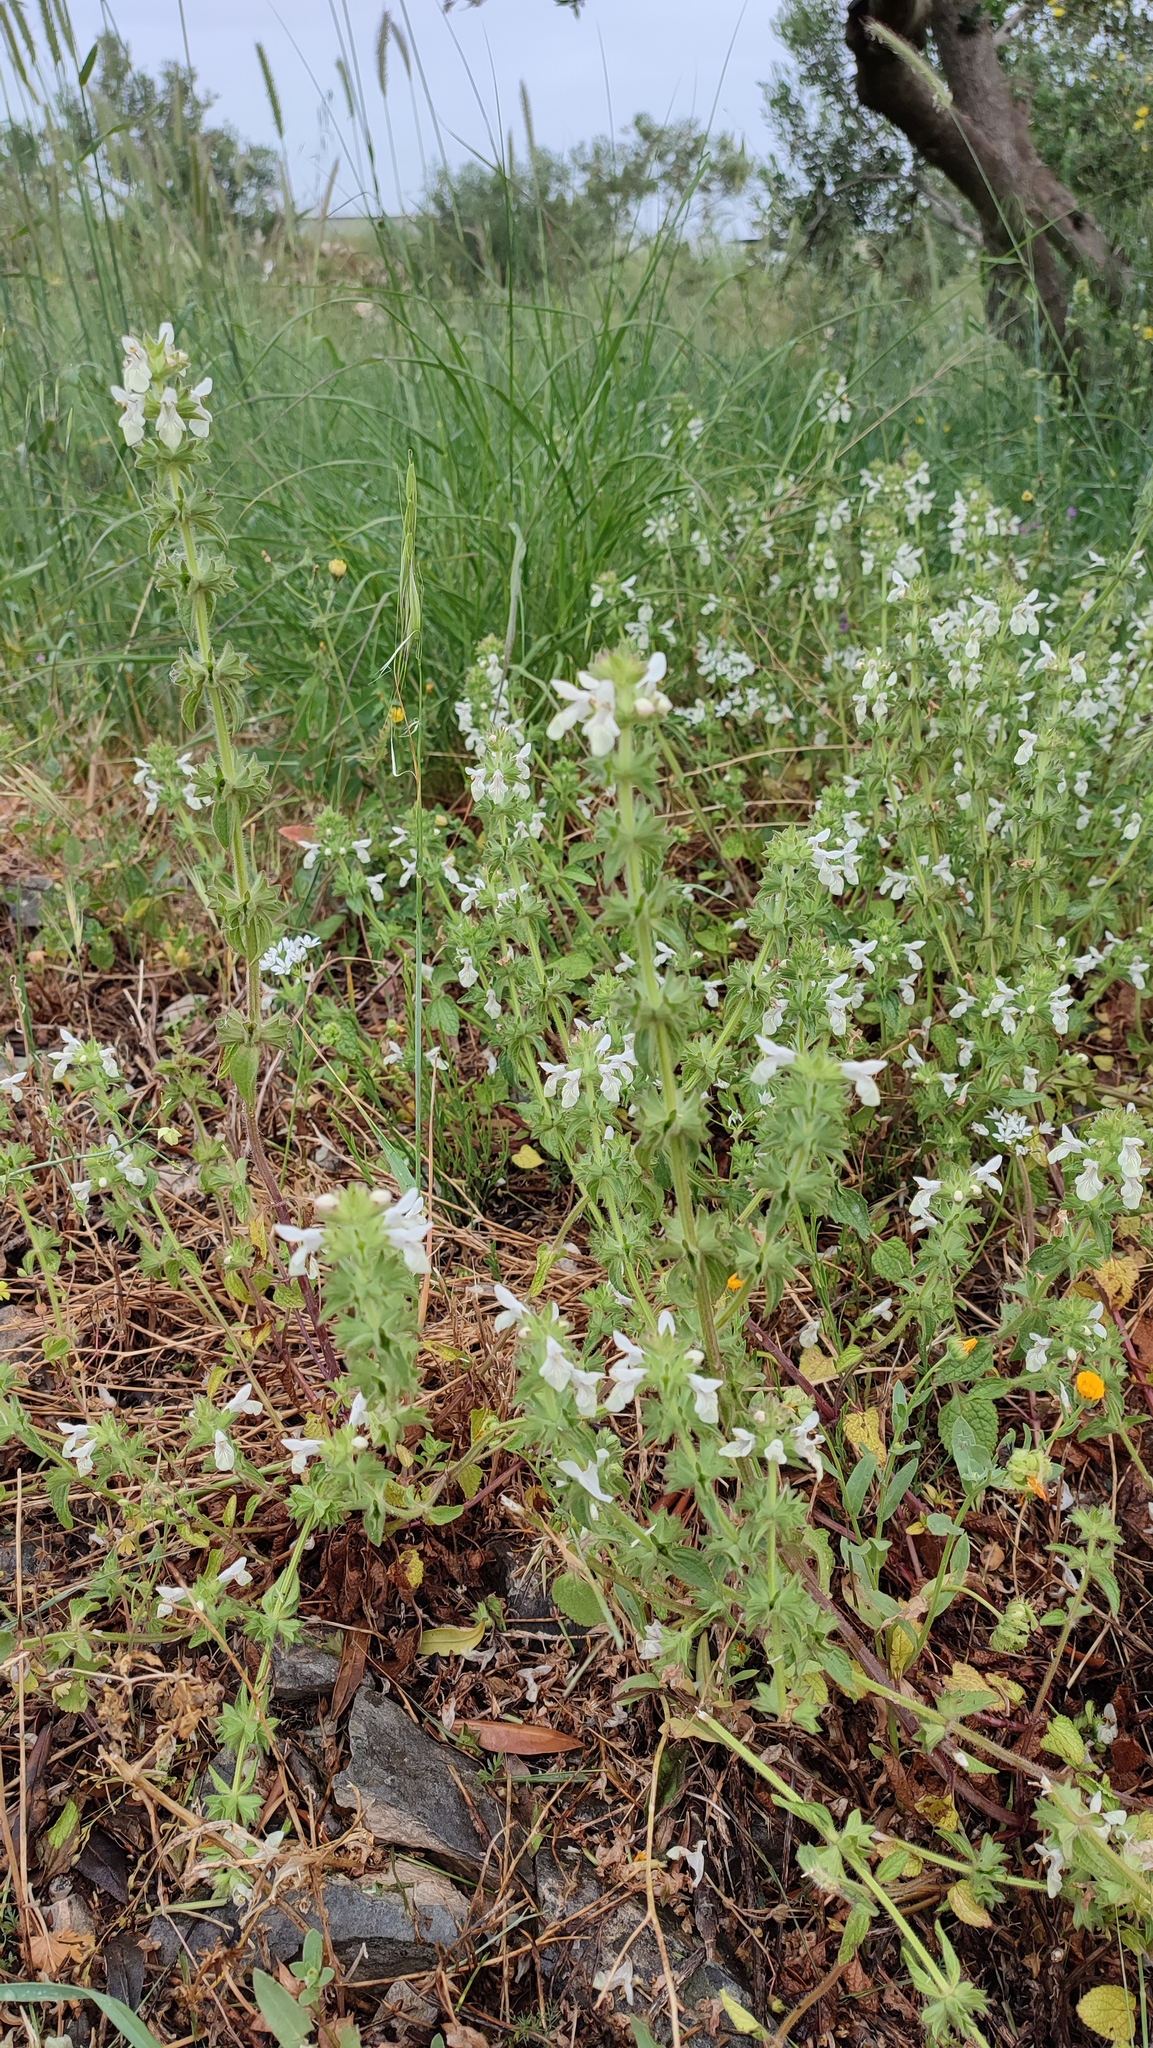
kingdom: Plantae
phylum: Tracheophyta
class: Magnoliopsida
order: Lamiales
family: Lamiaceae
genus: Sideritis
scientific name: Sideritis romana
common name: Simplebeak ironwort
